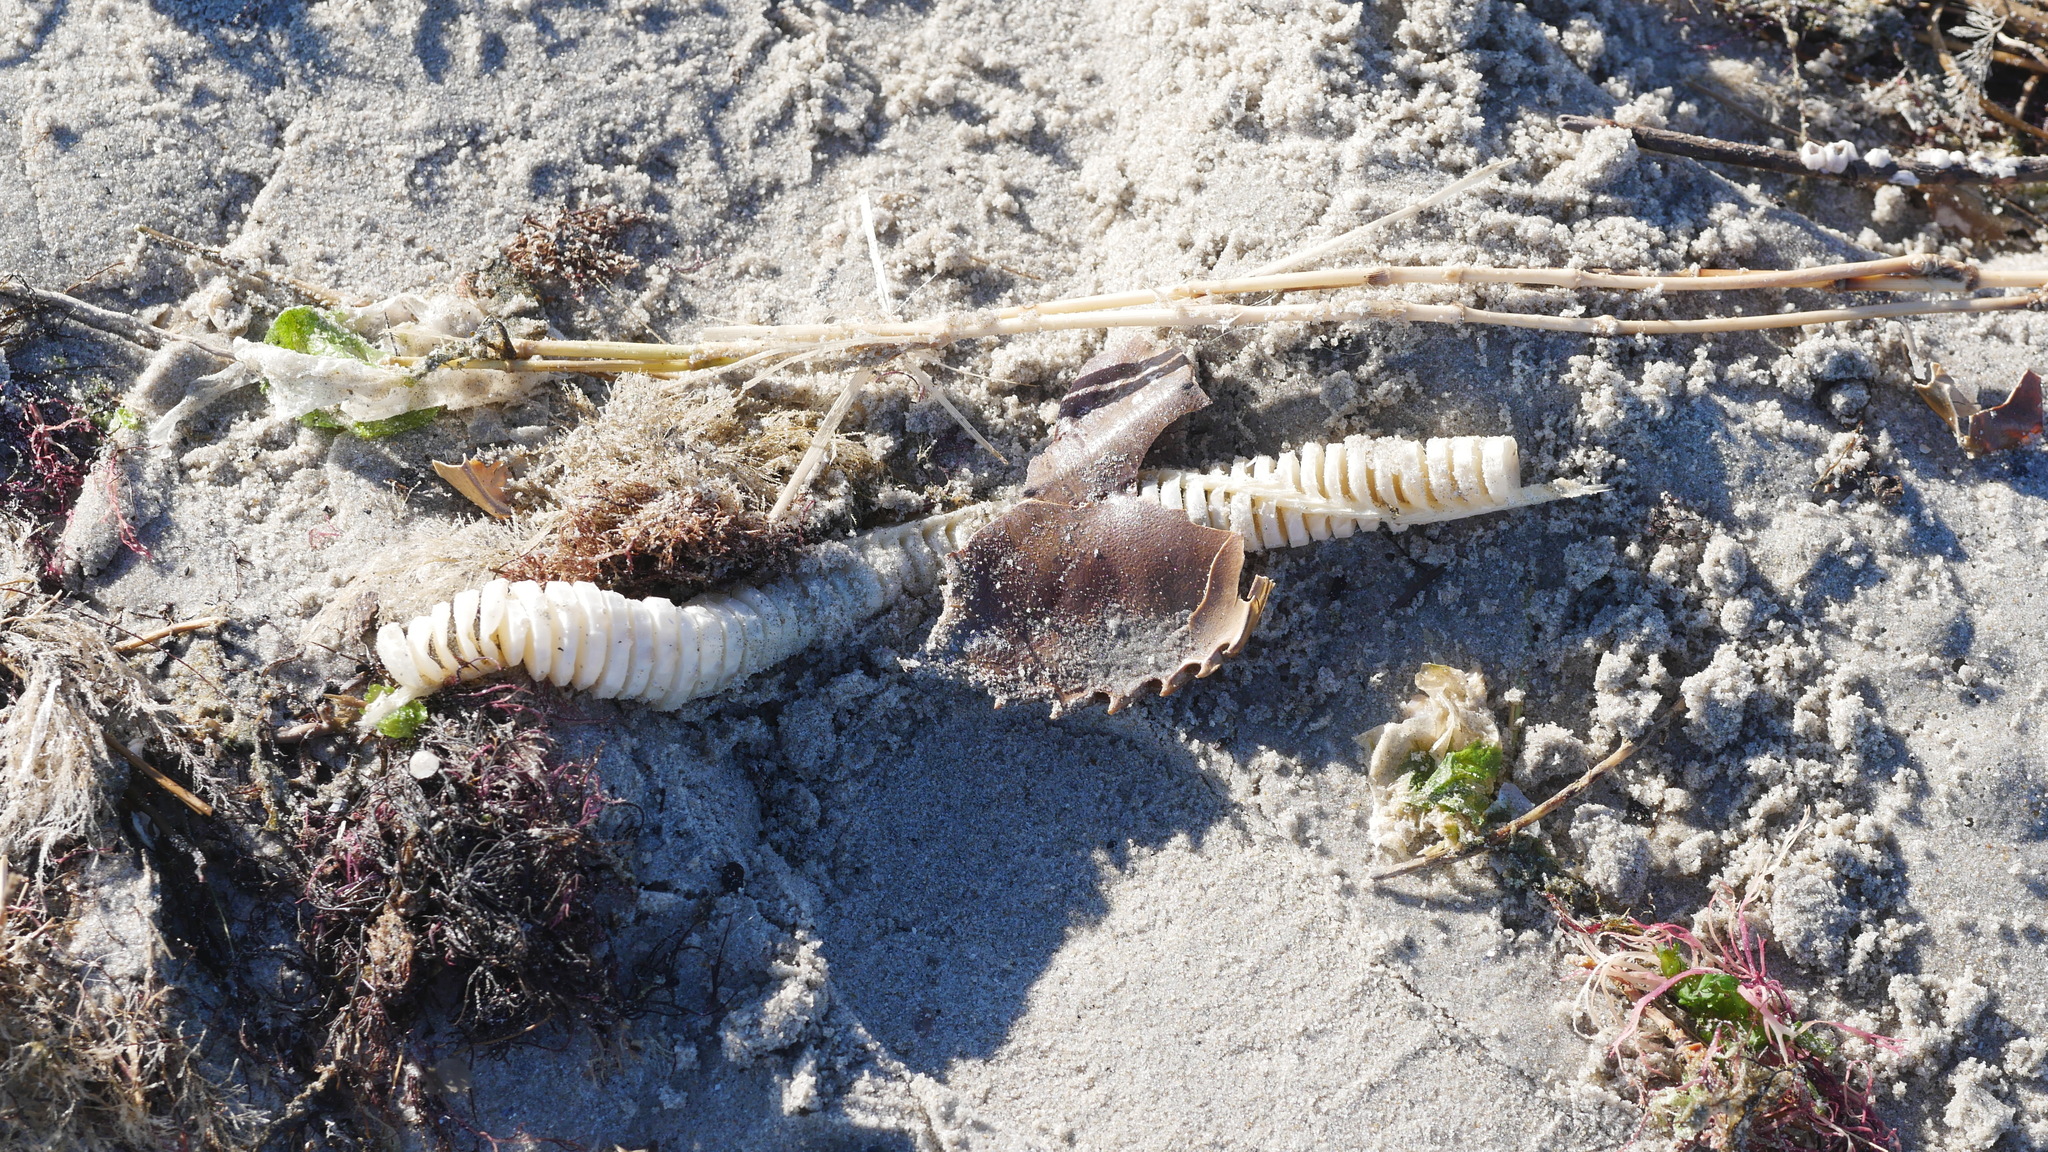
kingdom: Animalia
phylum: Mollusca
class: Gastropoda
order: Neogastropoda
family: Busyconidae
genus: Busycon
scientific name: Busycon carica
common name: Knobbed whelk
